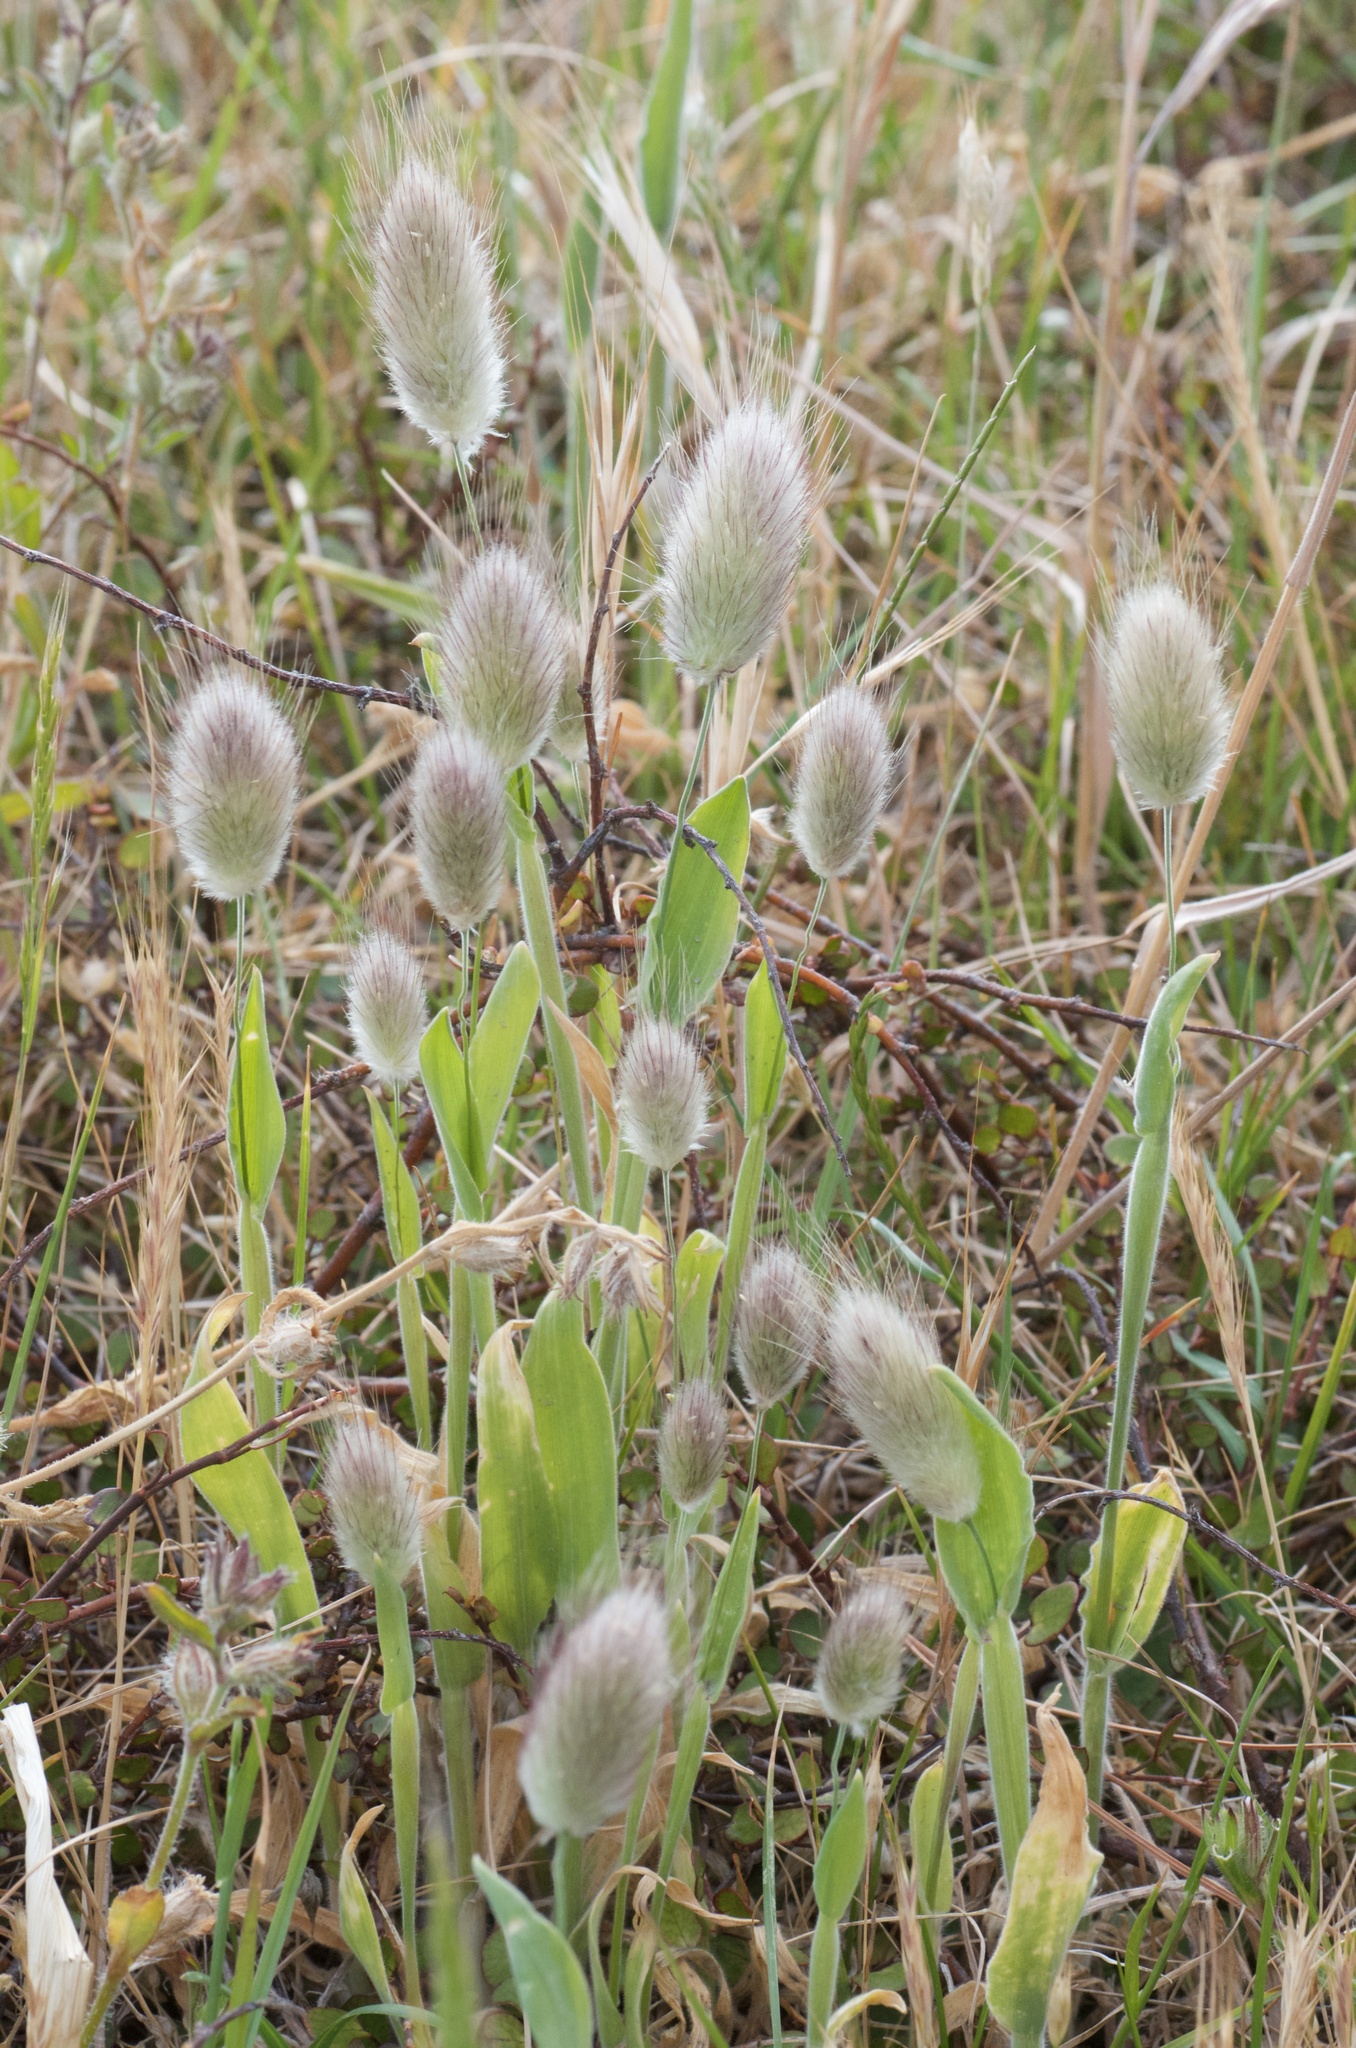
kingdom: Plantae
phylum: Tracheophyta
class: Liliopsida
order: Poales
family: Poaceae
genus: Lagurus
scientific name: Lagurus ovatus
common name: Hare's-tail
